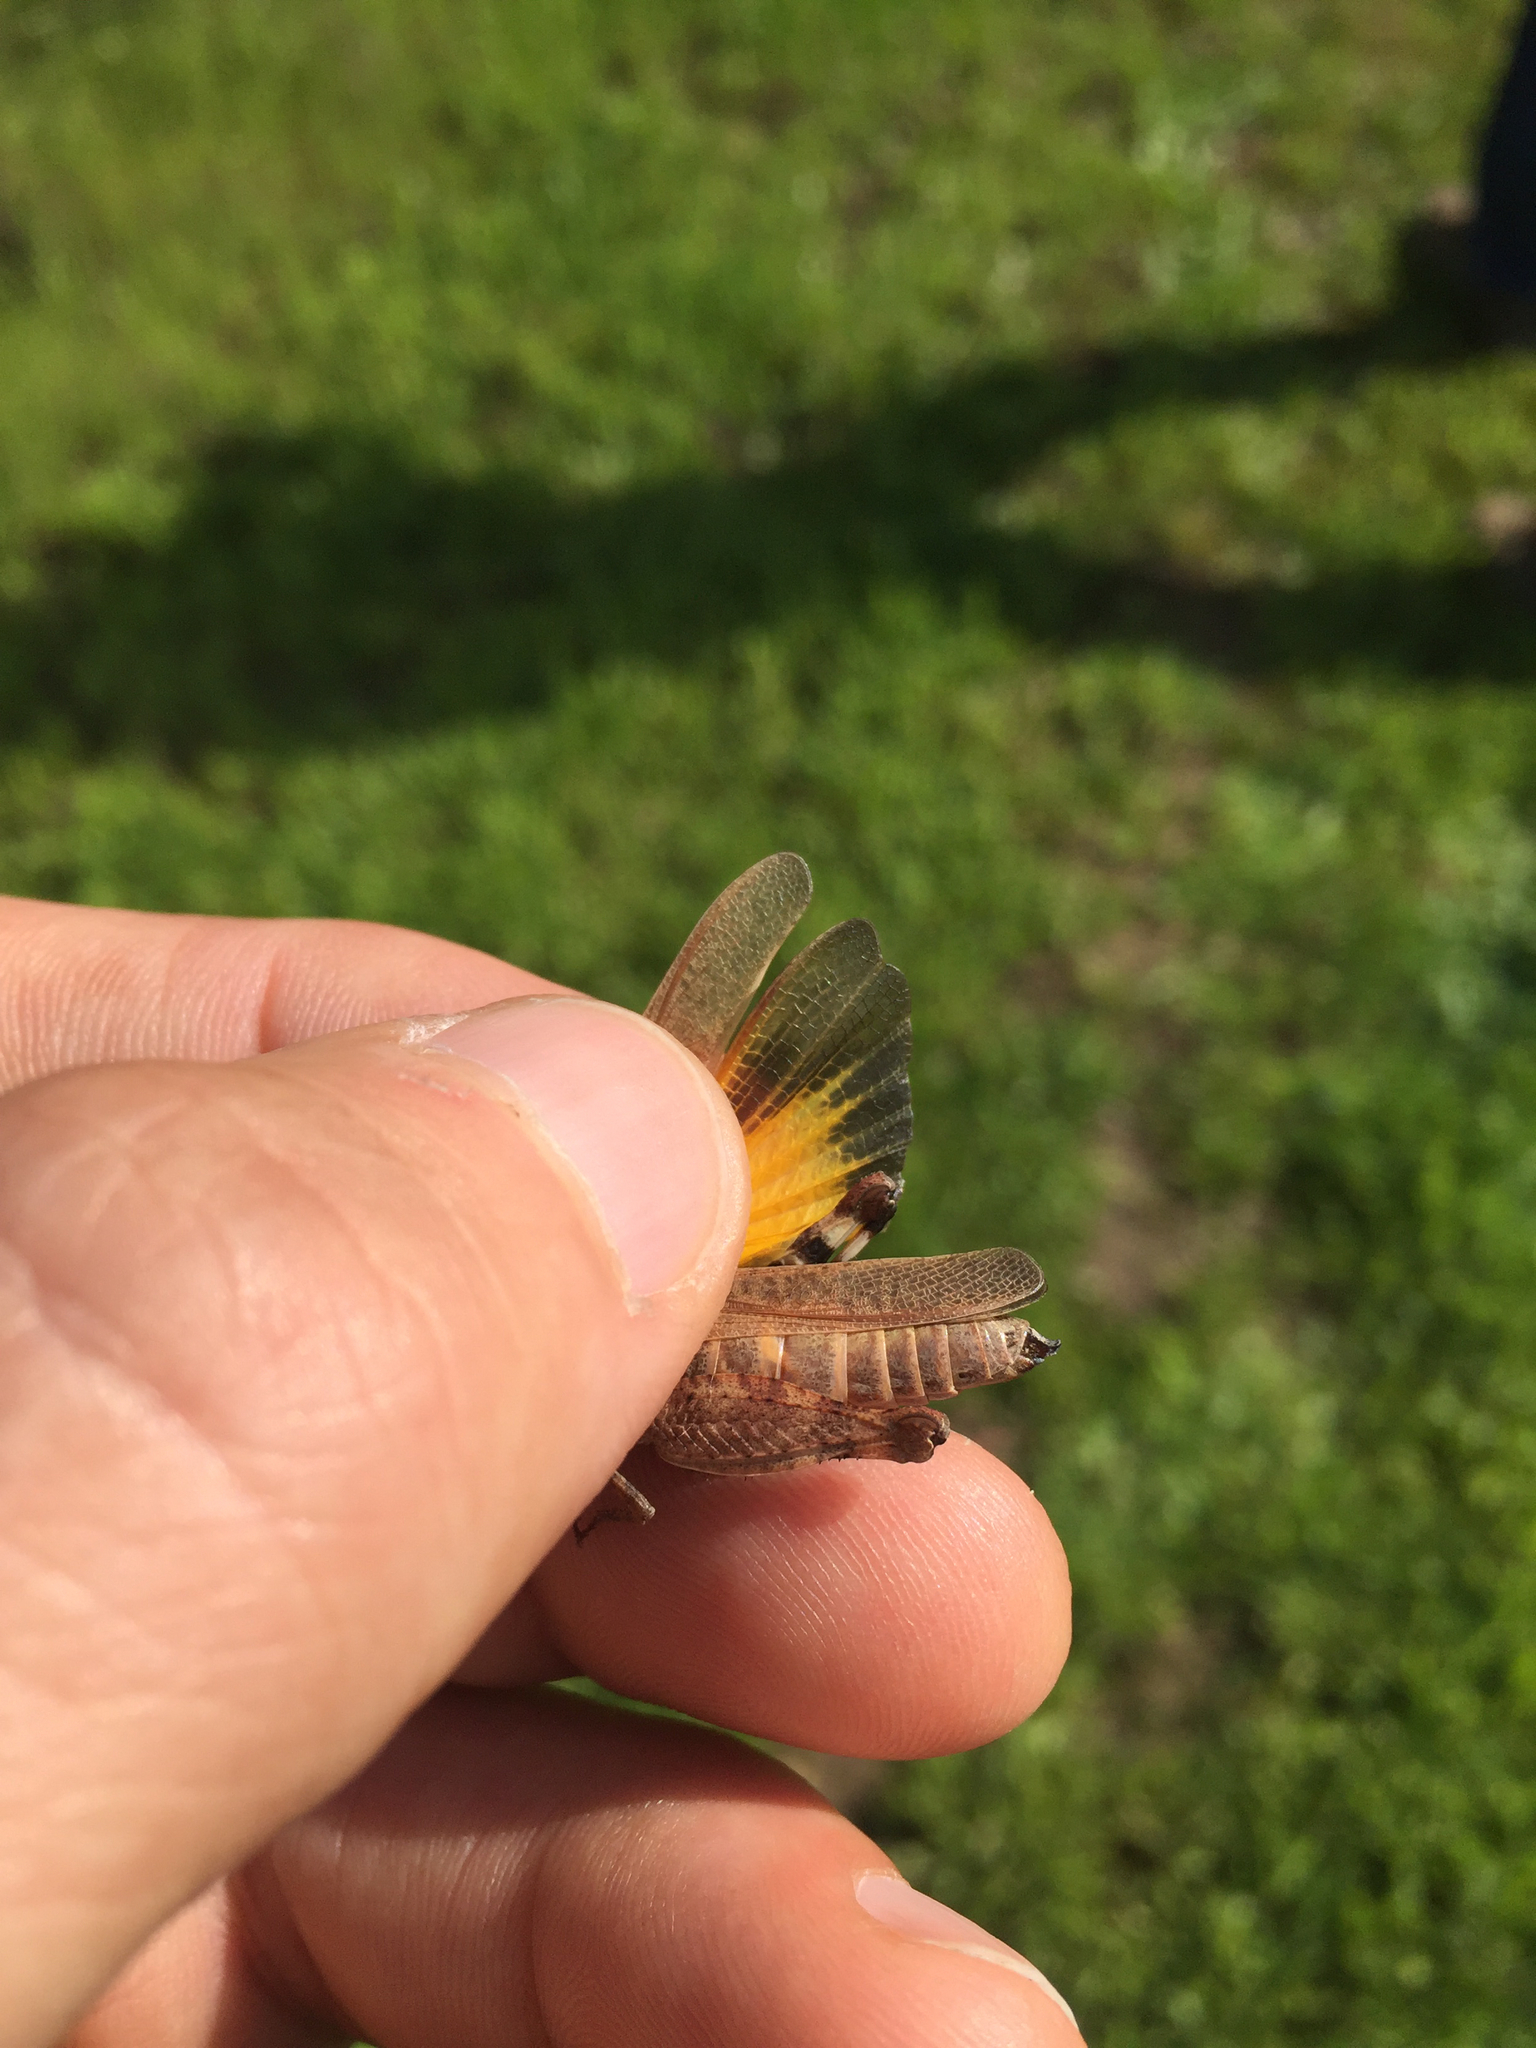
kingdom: Animalia
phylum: Arthropoda
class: Insecta
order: Orthoptera
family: Acrididae
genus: Arphia
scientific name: Arphia behrensi
